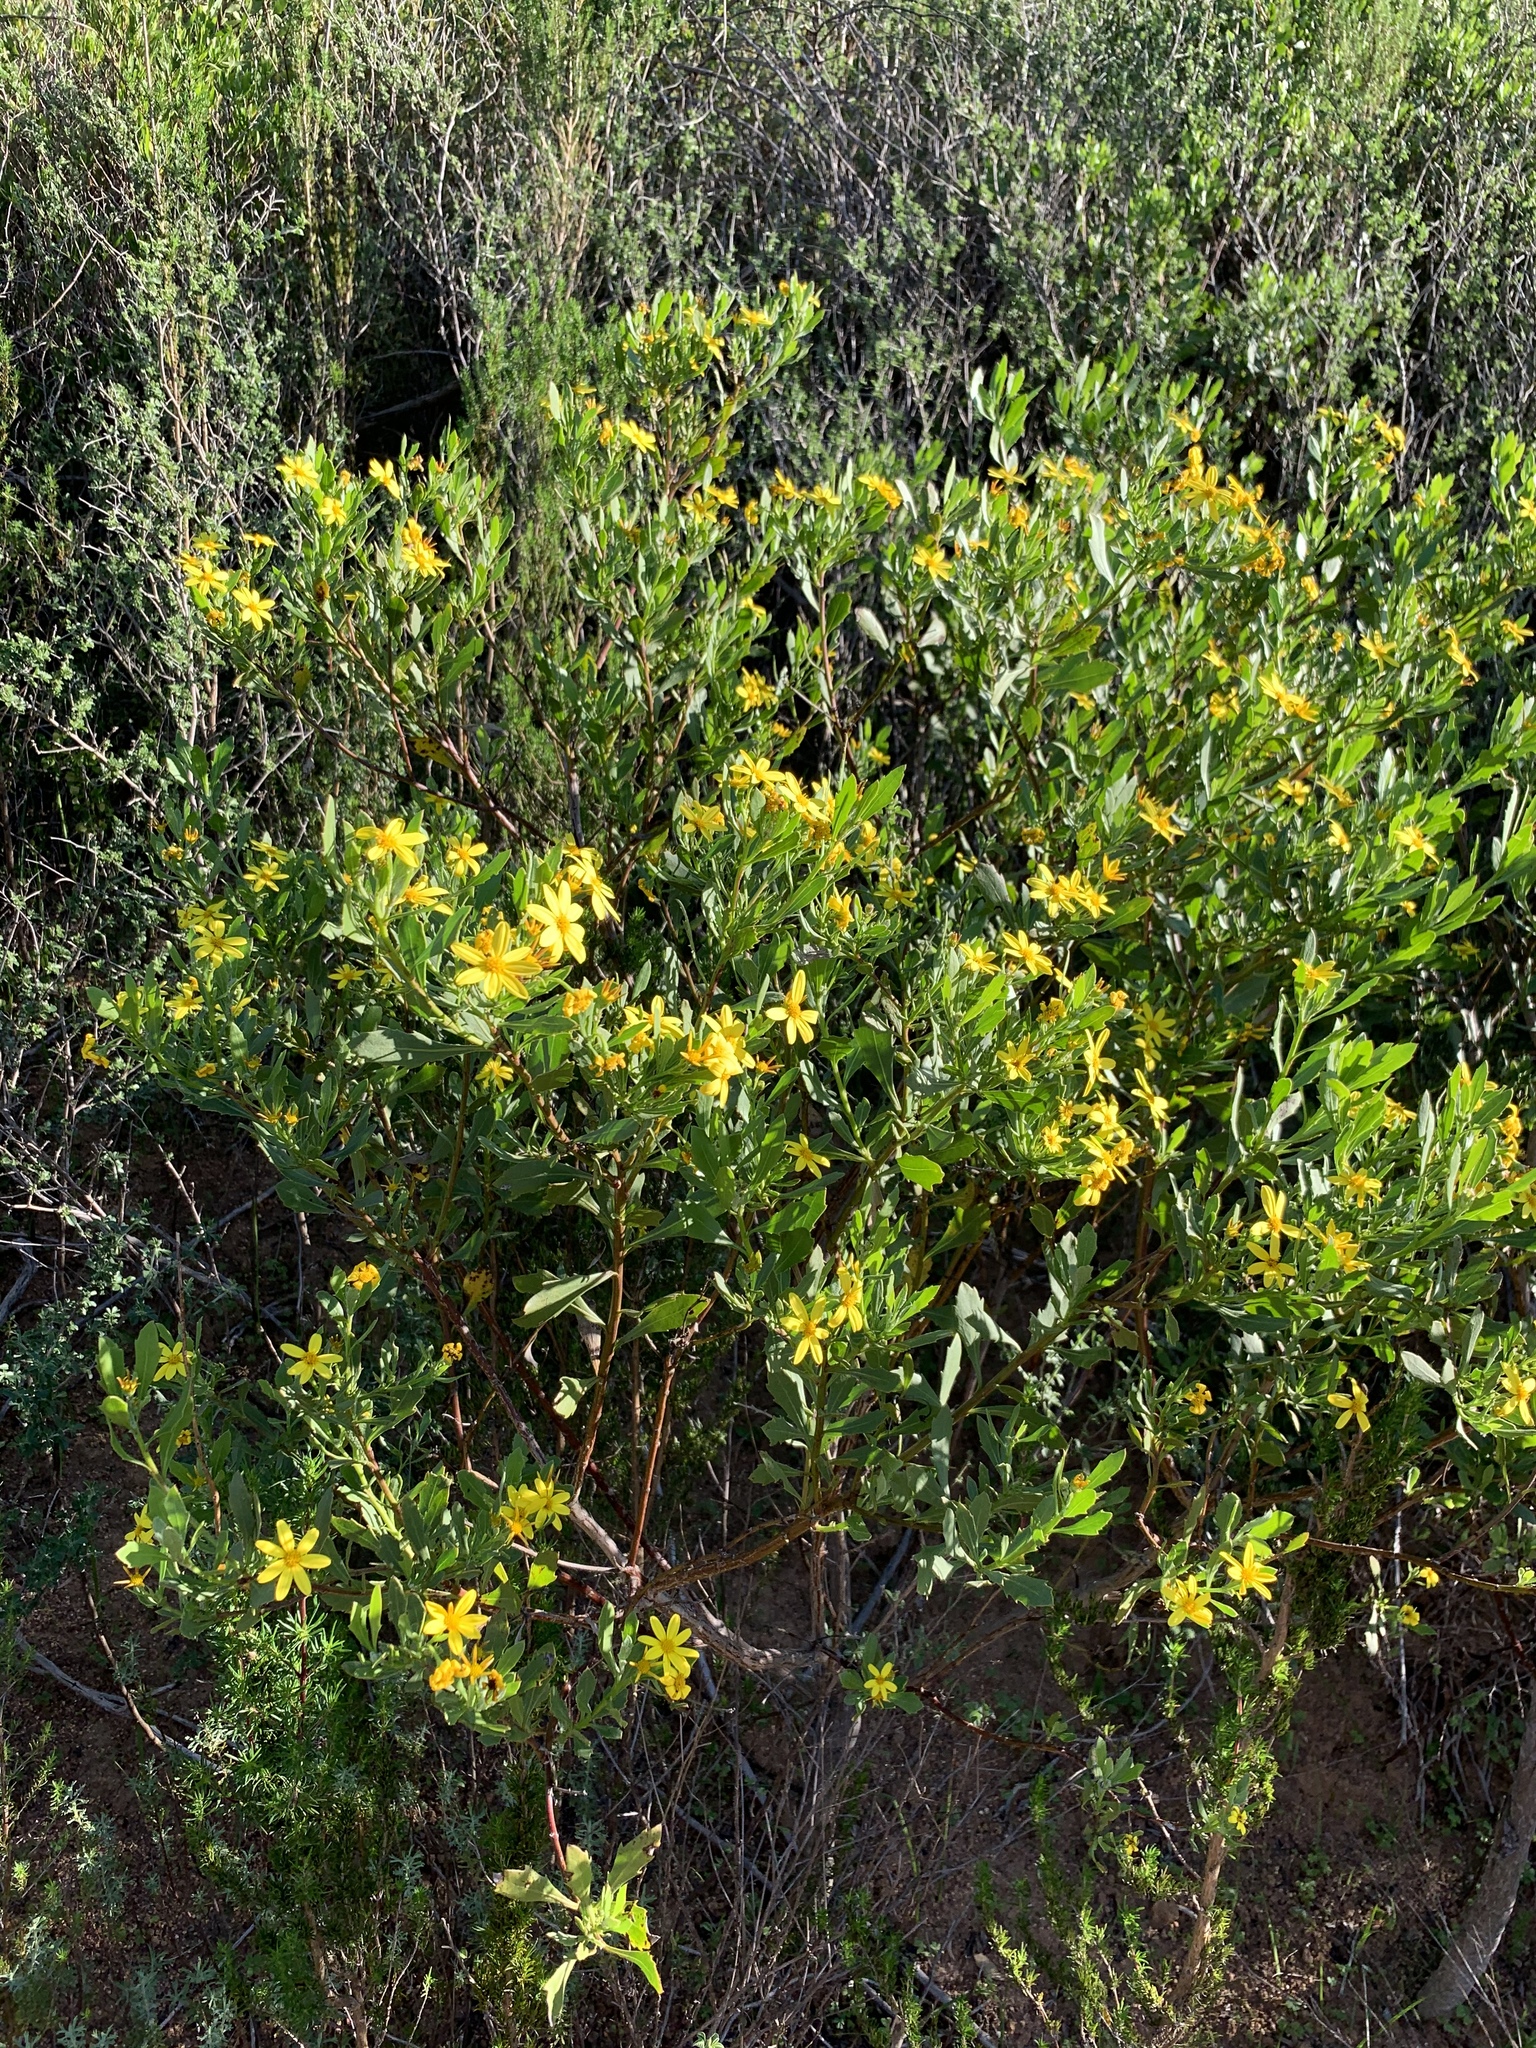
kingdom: Plantae
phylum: Tracheophyta
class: Magnoliopsida
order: Asterales
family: Asteraceae
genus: Osteospermum
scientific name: Osteospermum moniliferum
